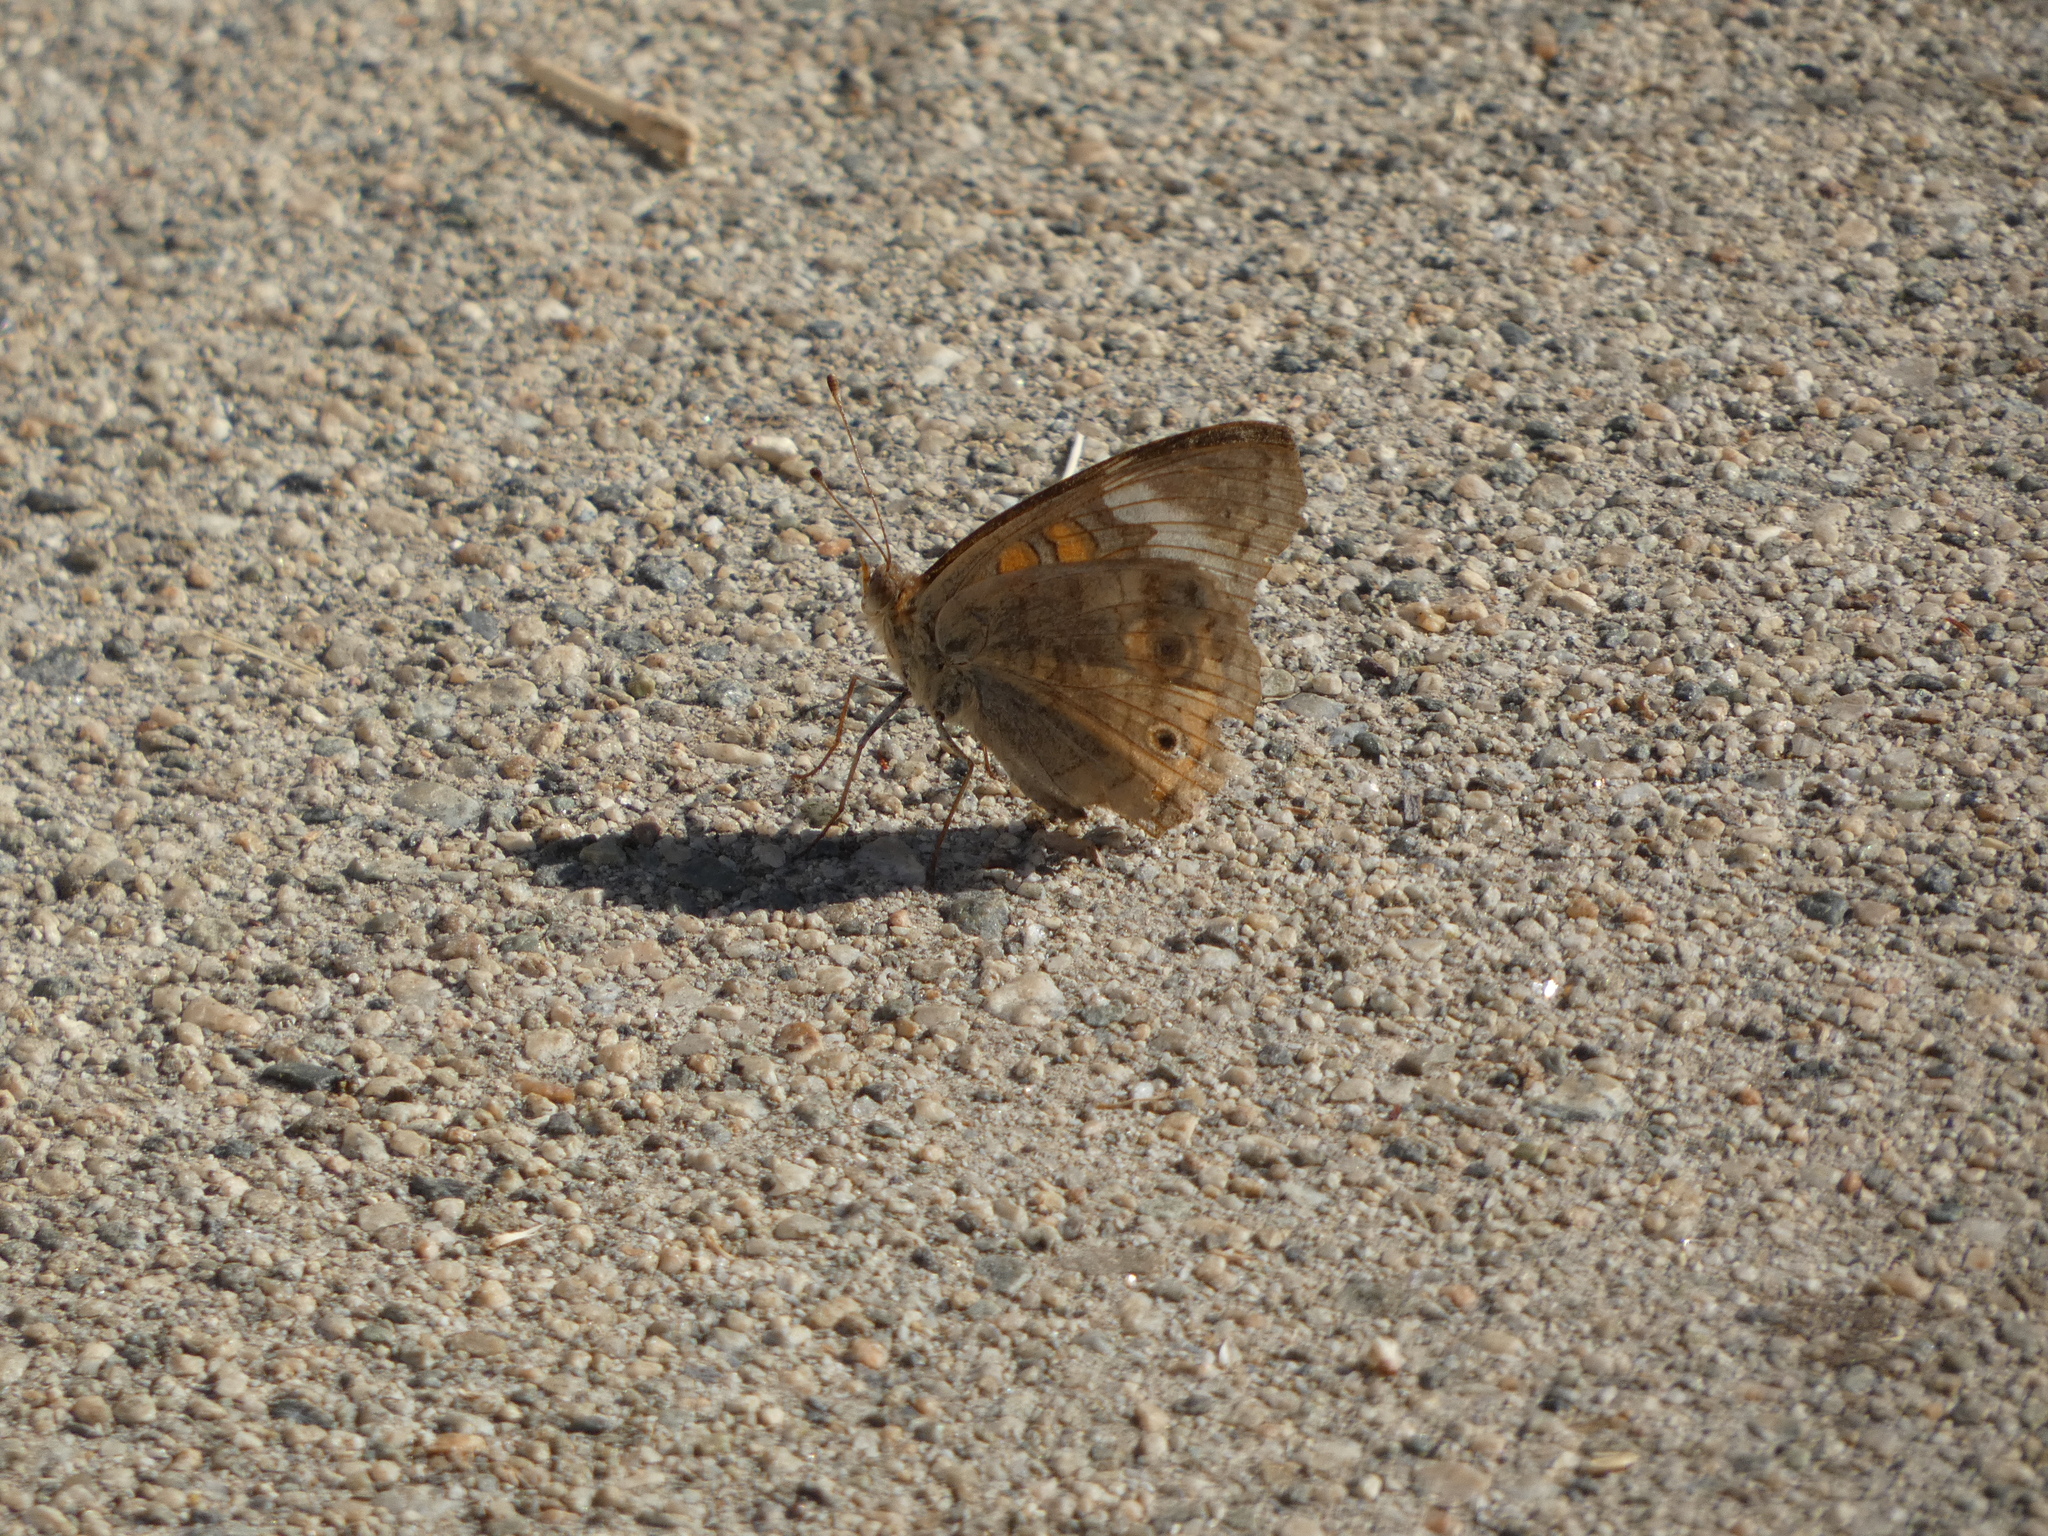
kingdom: Animalia
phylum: Arthropoda
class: Insecta
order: Lepidoptera
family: Nymphalidae
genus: Junonia
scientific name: Junonia grisea
